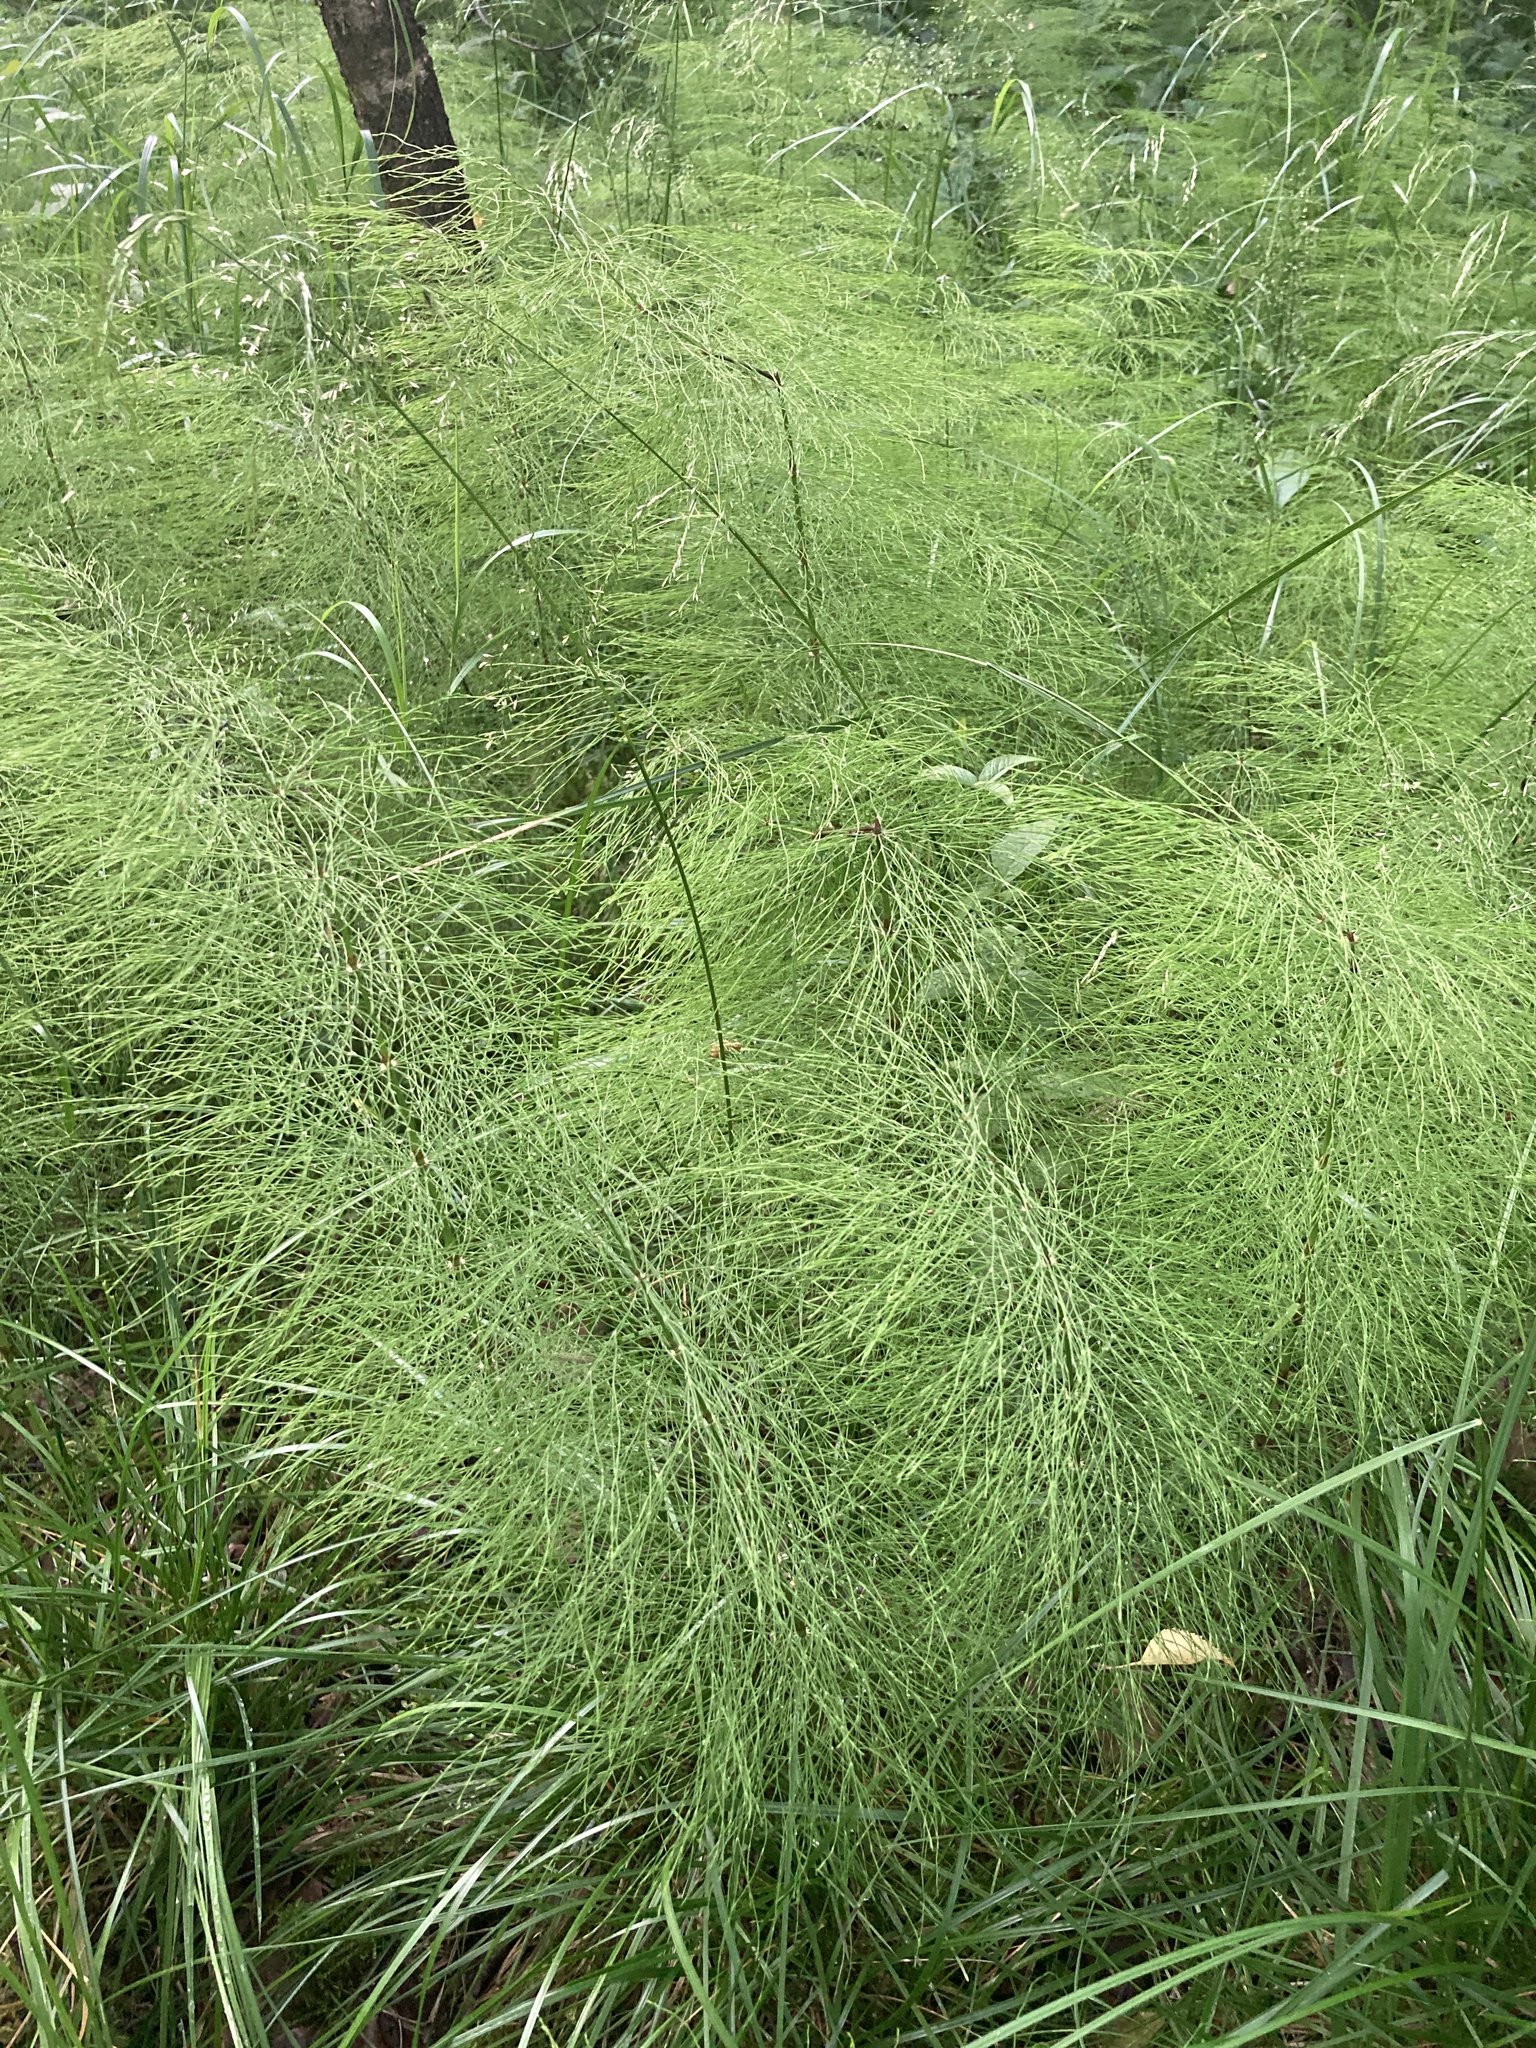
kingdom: Plantae
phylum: Tracheophyta
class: Polypodiopsida
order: Equisetales
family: Equisetaceae
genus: Equisetum
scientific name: Equisetum sylvaticum
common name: Wood horsetail
